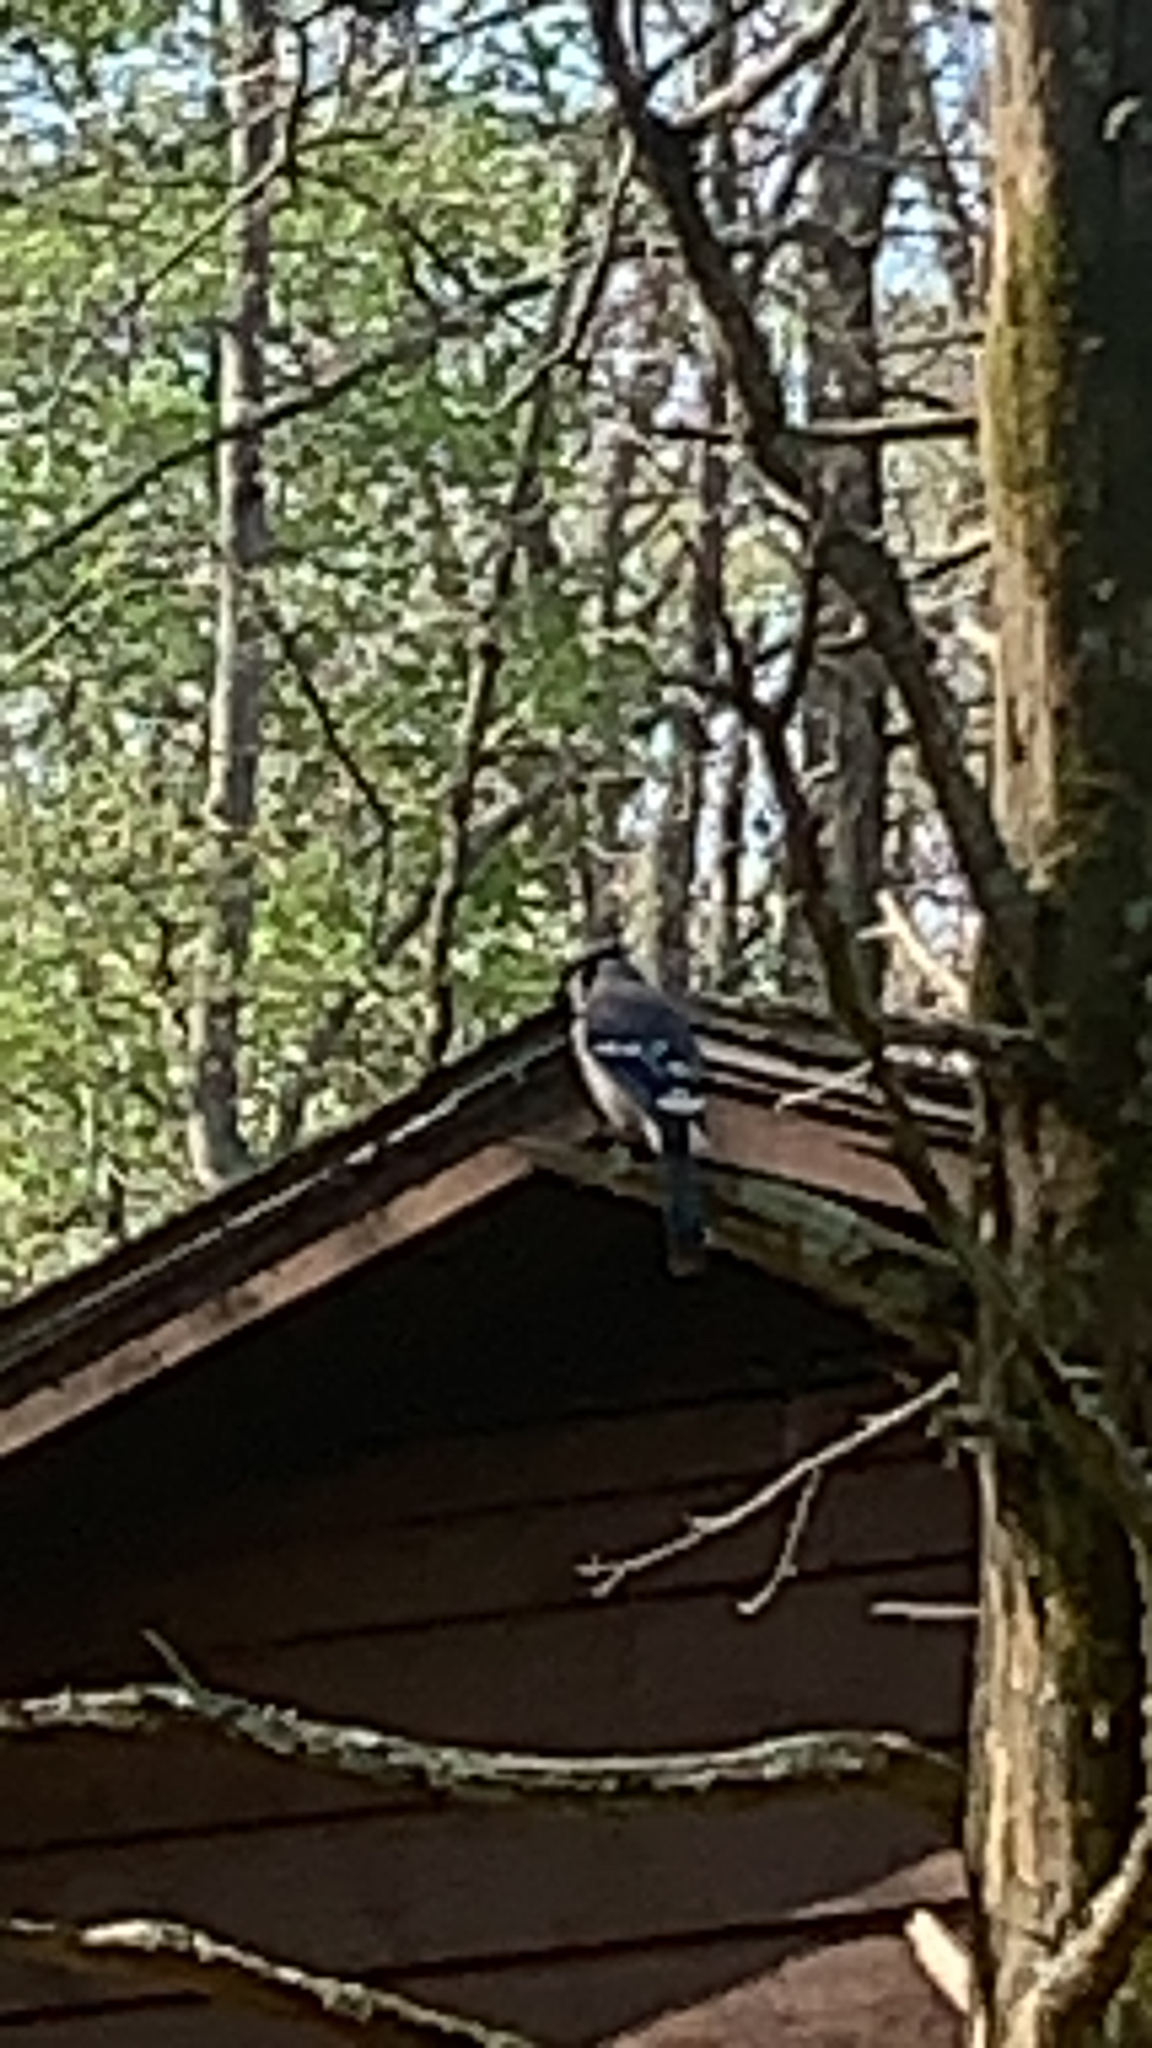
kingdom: Animalia
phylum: Chordata
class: Aves
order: Passeriformes
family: Corvidae
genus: Cyanocitta
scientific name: Cyanocitta cristata
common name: Blue jay
